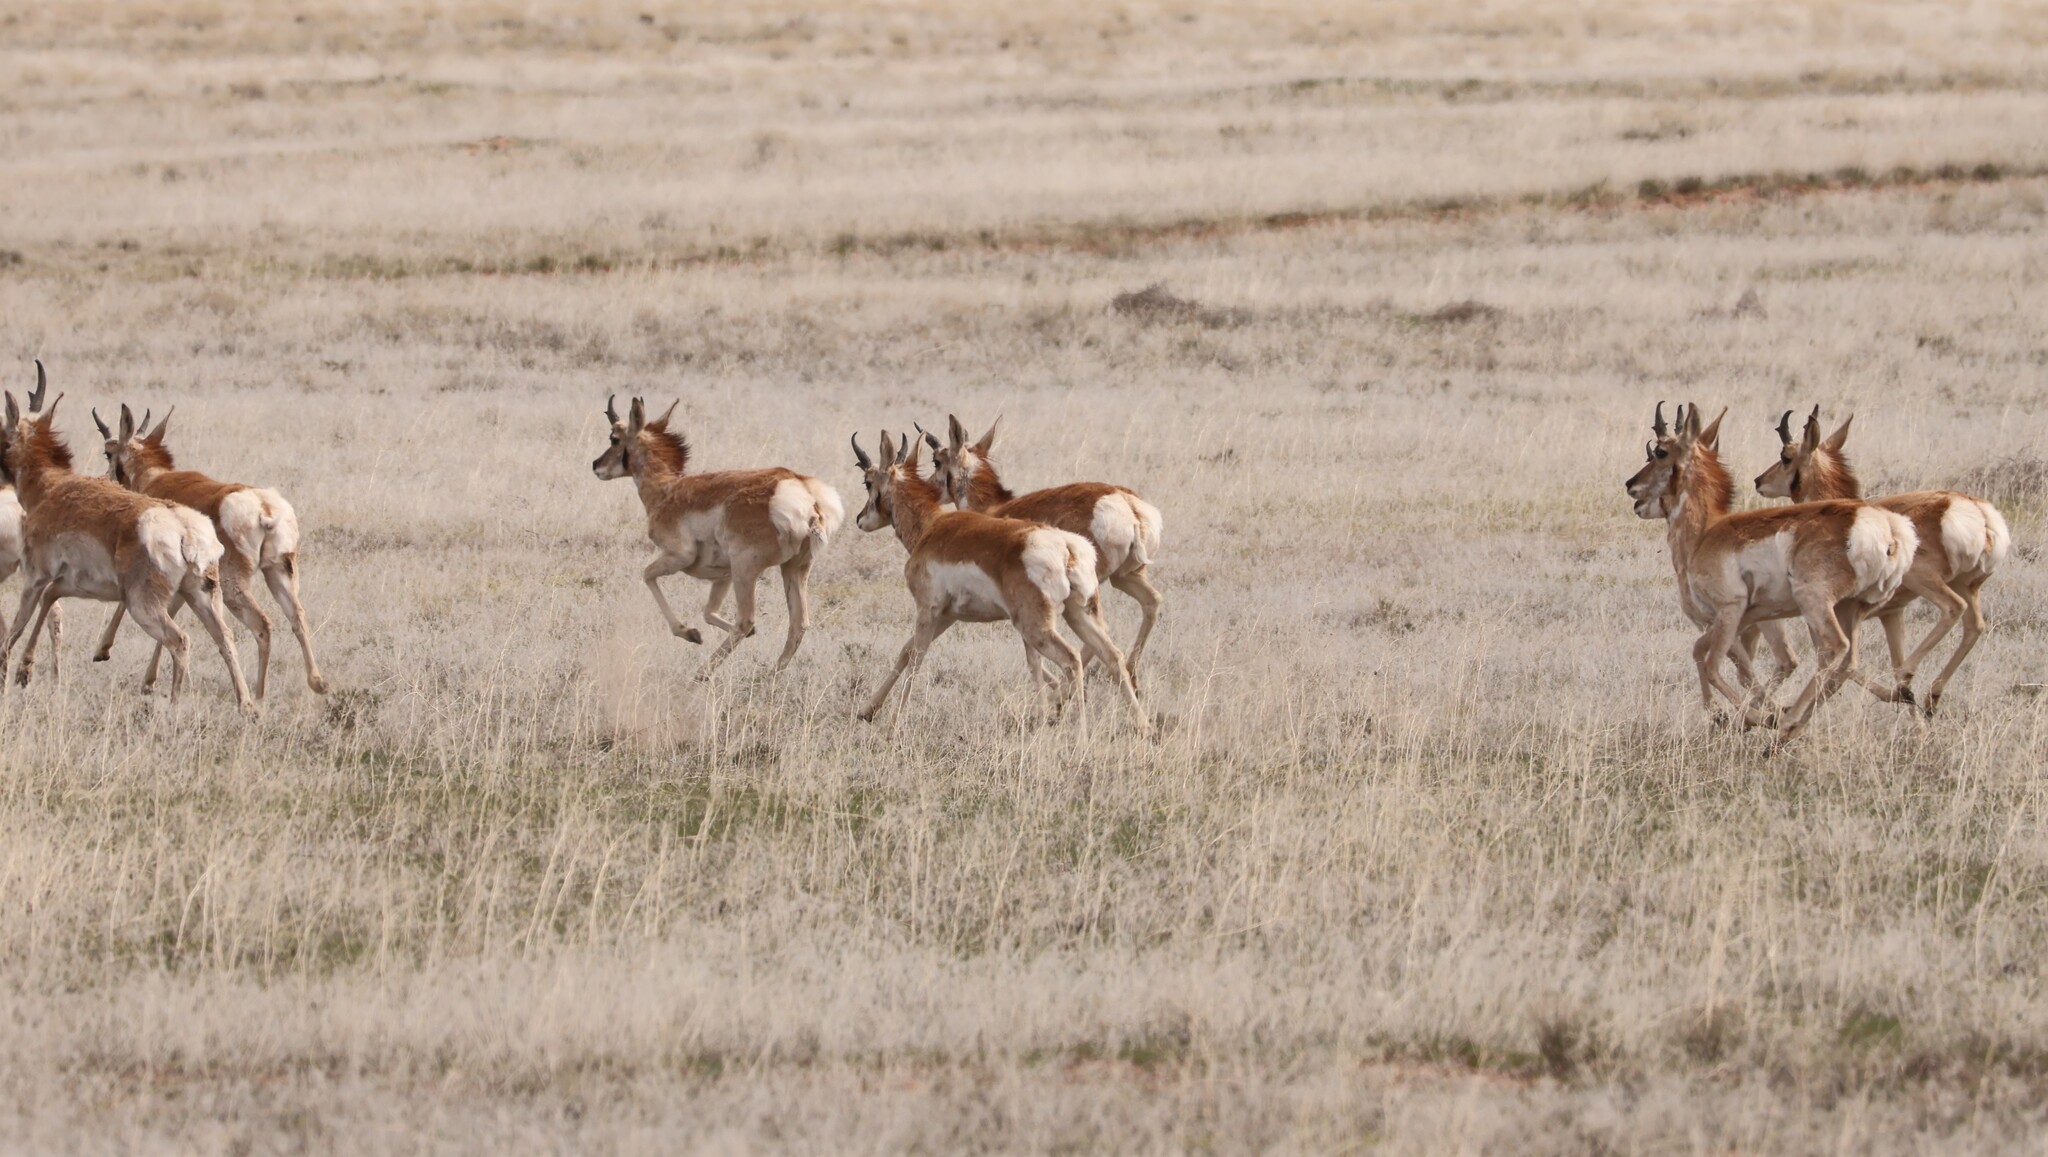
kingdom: Animalia
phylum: Chordata
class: Mammalia
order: Artiodactyla
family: Antilocapridae
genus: Antilocapra
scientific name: Antilocapra americana
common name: Pronghorn
